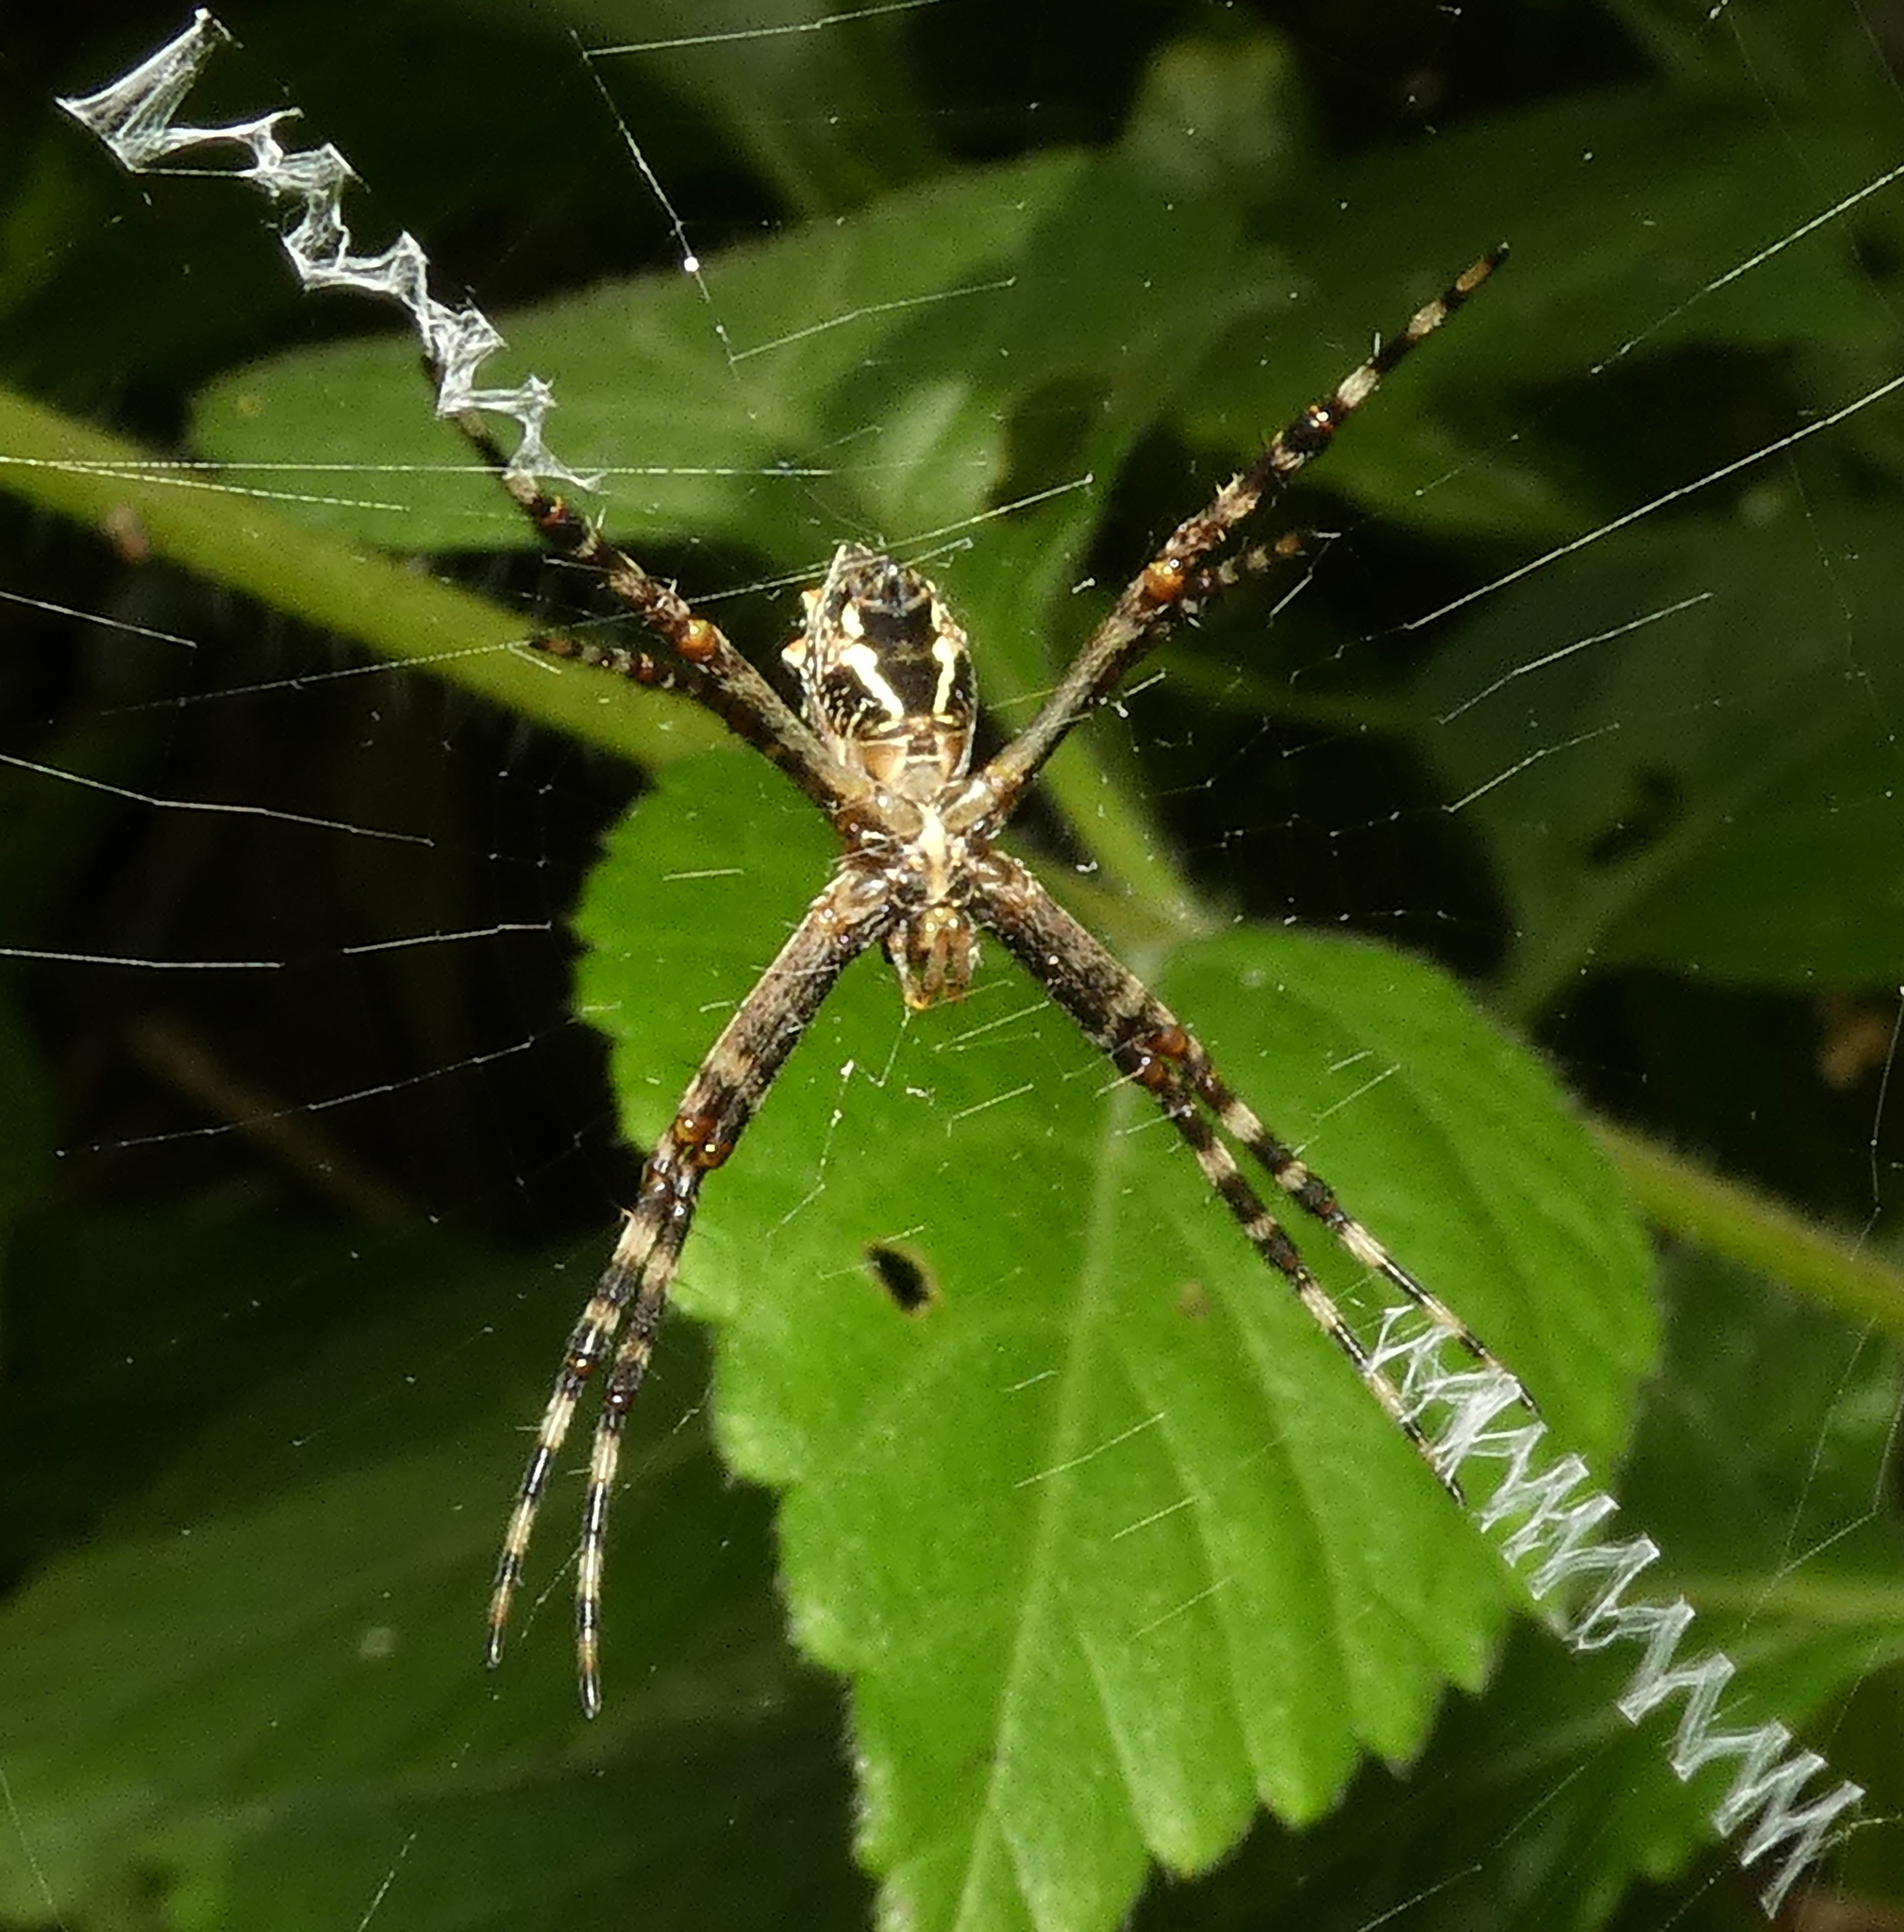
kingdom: Animalia
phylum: Arthropoda
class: Arachnida
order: Araneae
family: Araneidae
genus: Argiope
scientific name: Argiope argentata
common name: Orb weavers
